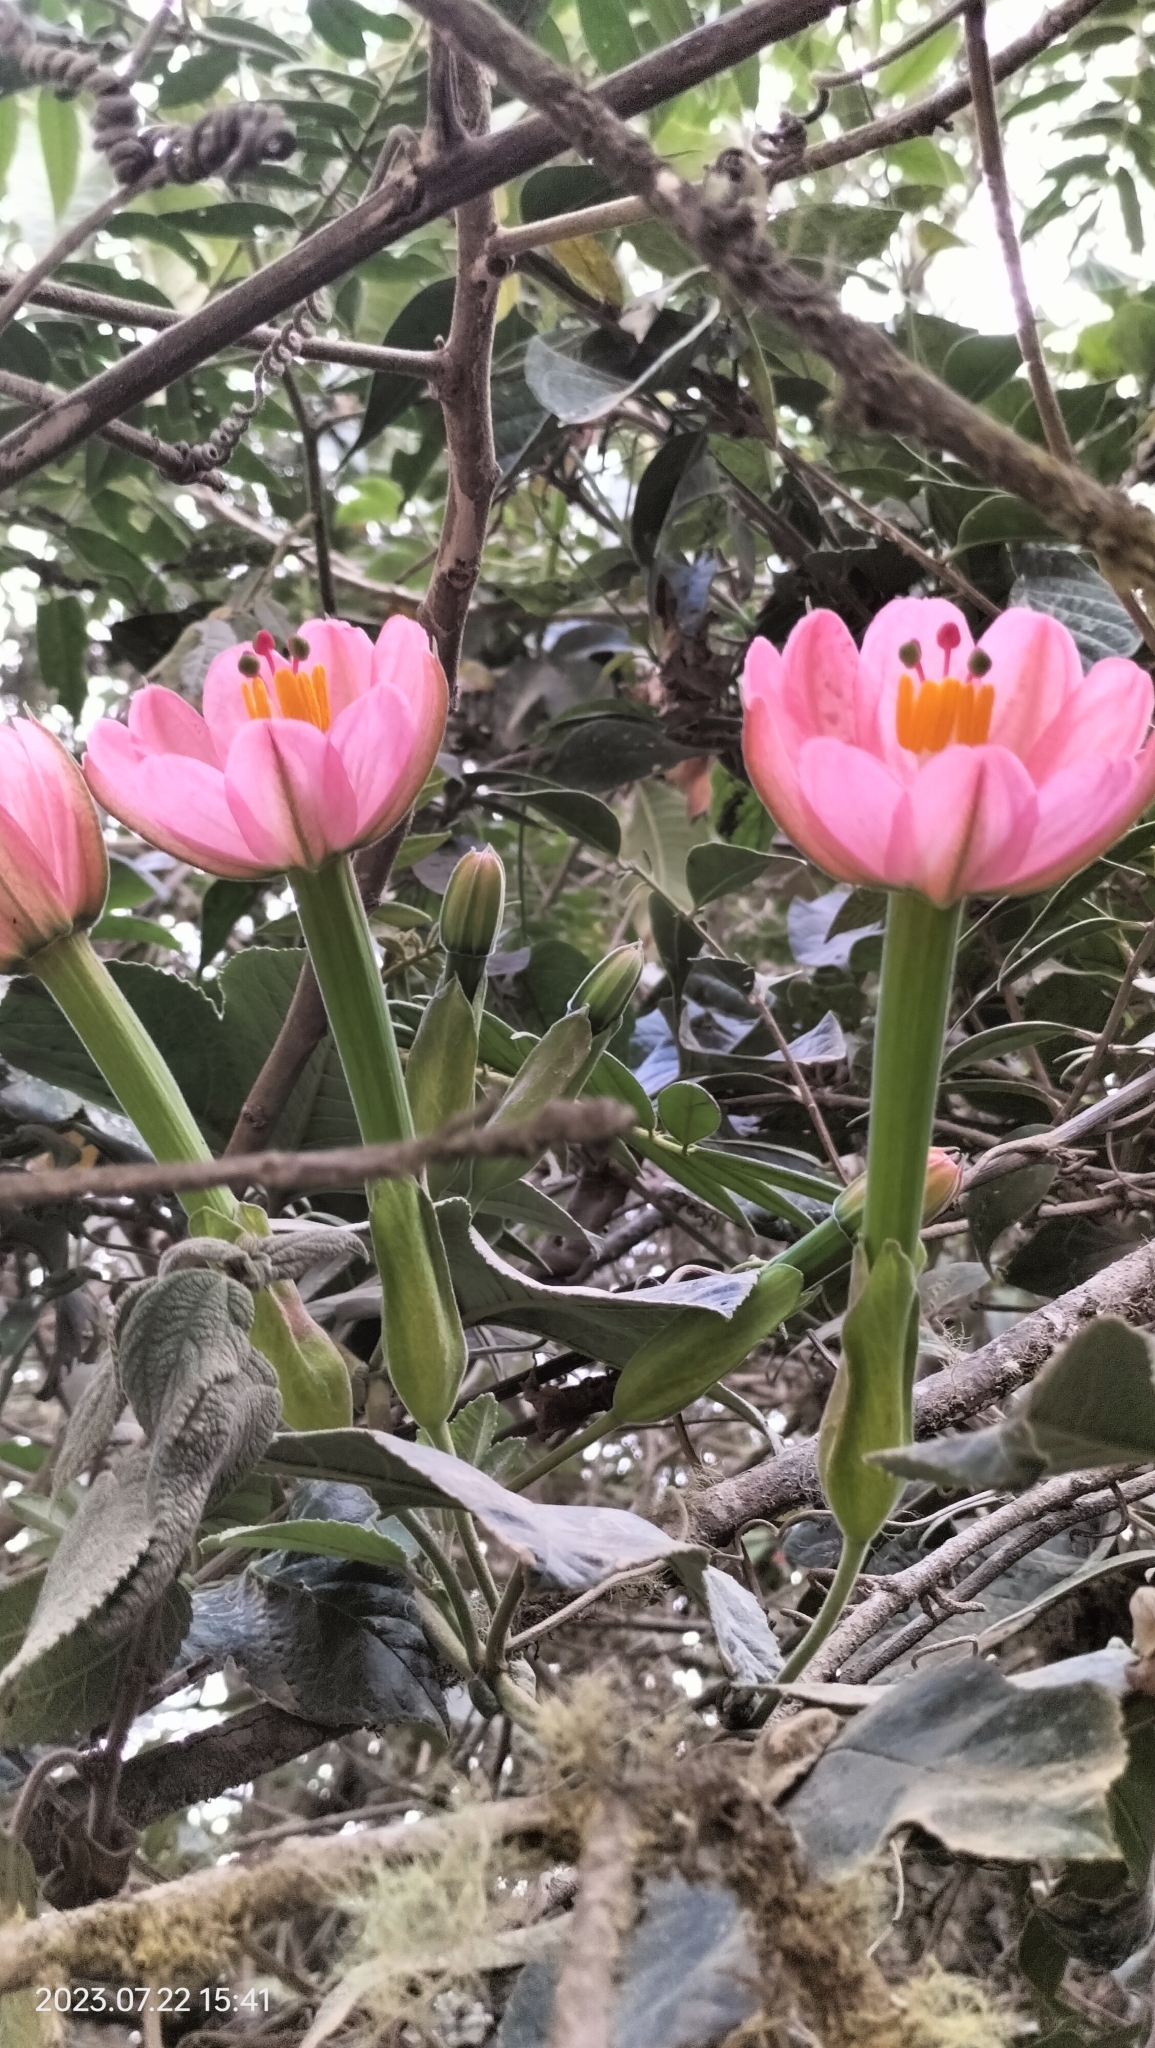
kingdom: Plantae
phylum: Tracheophyta
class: Magnoliopsida
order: Malpighiales
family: Passifloraceae
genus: Passiflora
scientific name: Passiflora mixta
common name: Passion flower
